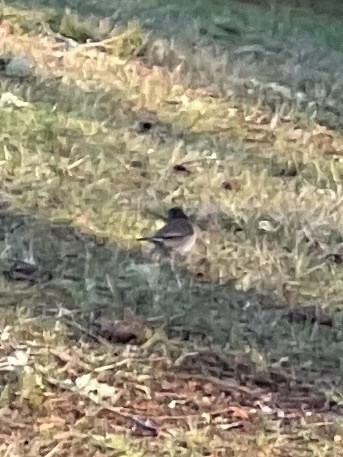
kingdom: Animalia
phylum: Chordata
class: Aves
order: Passeriformes
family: Passerellidae
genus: Junco
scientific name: Junco hyemalis
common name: Dark-eyed junco
